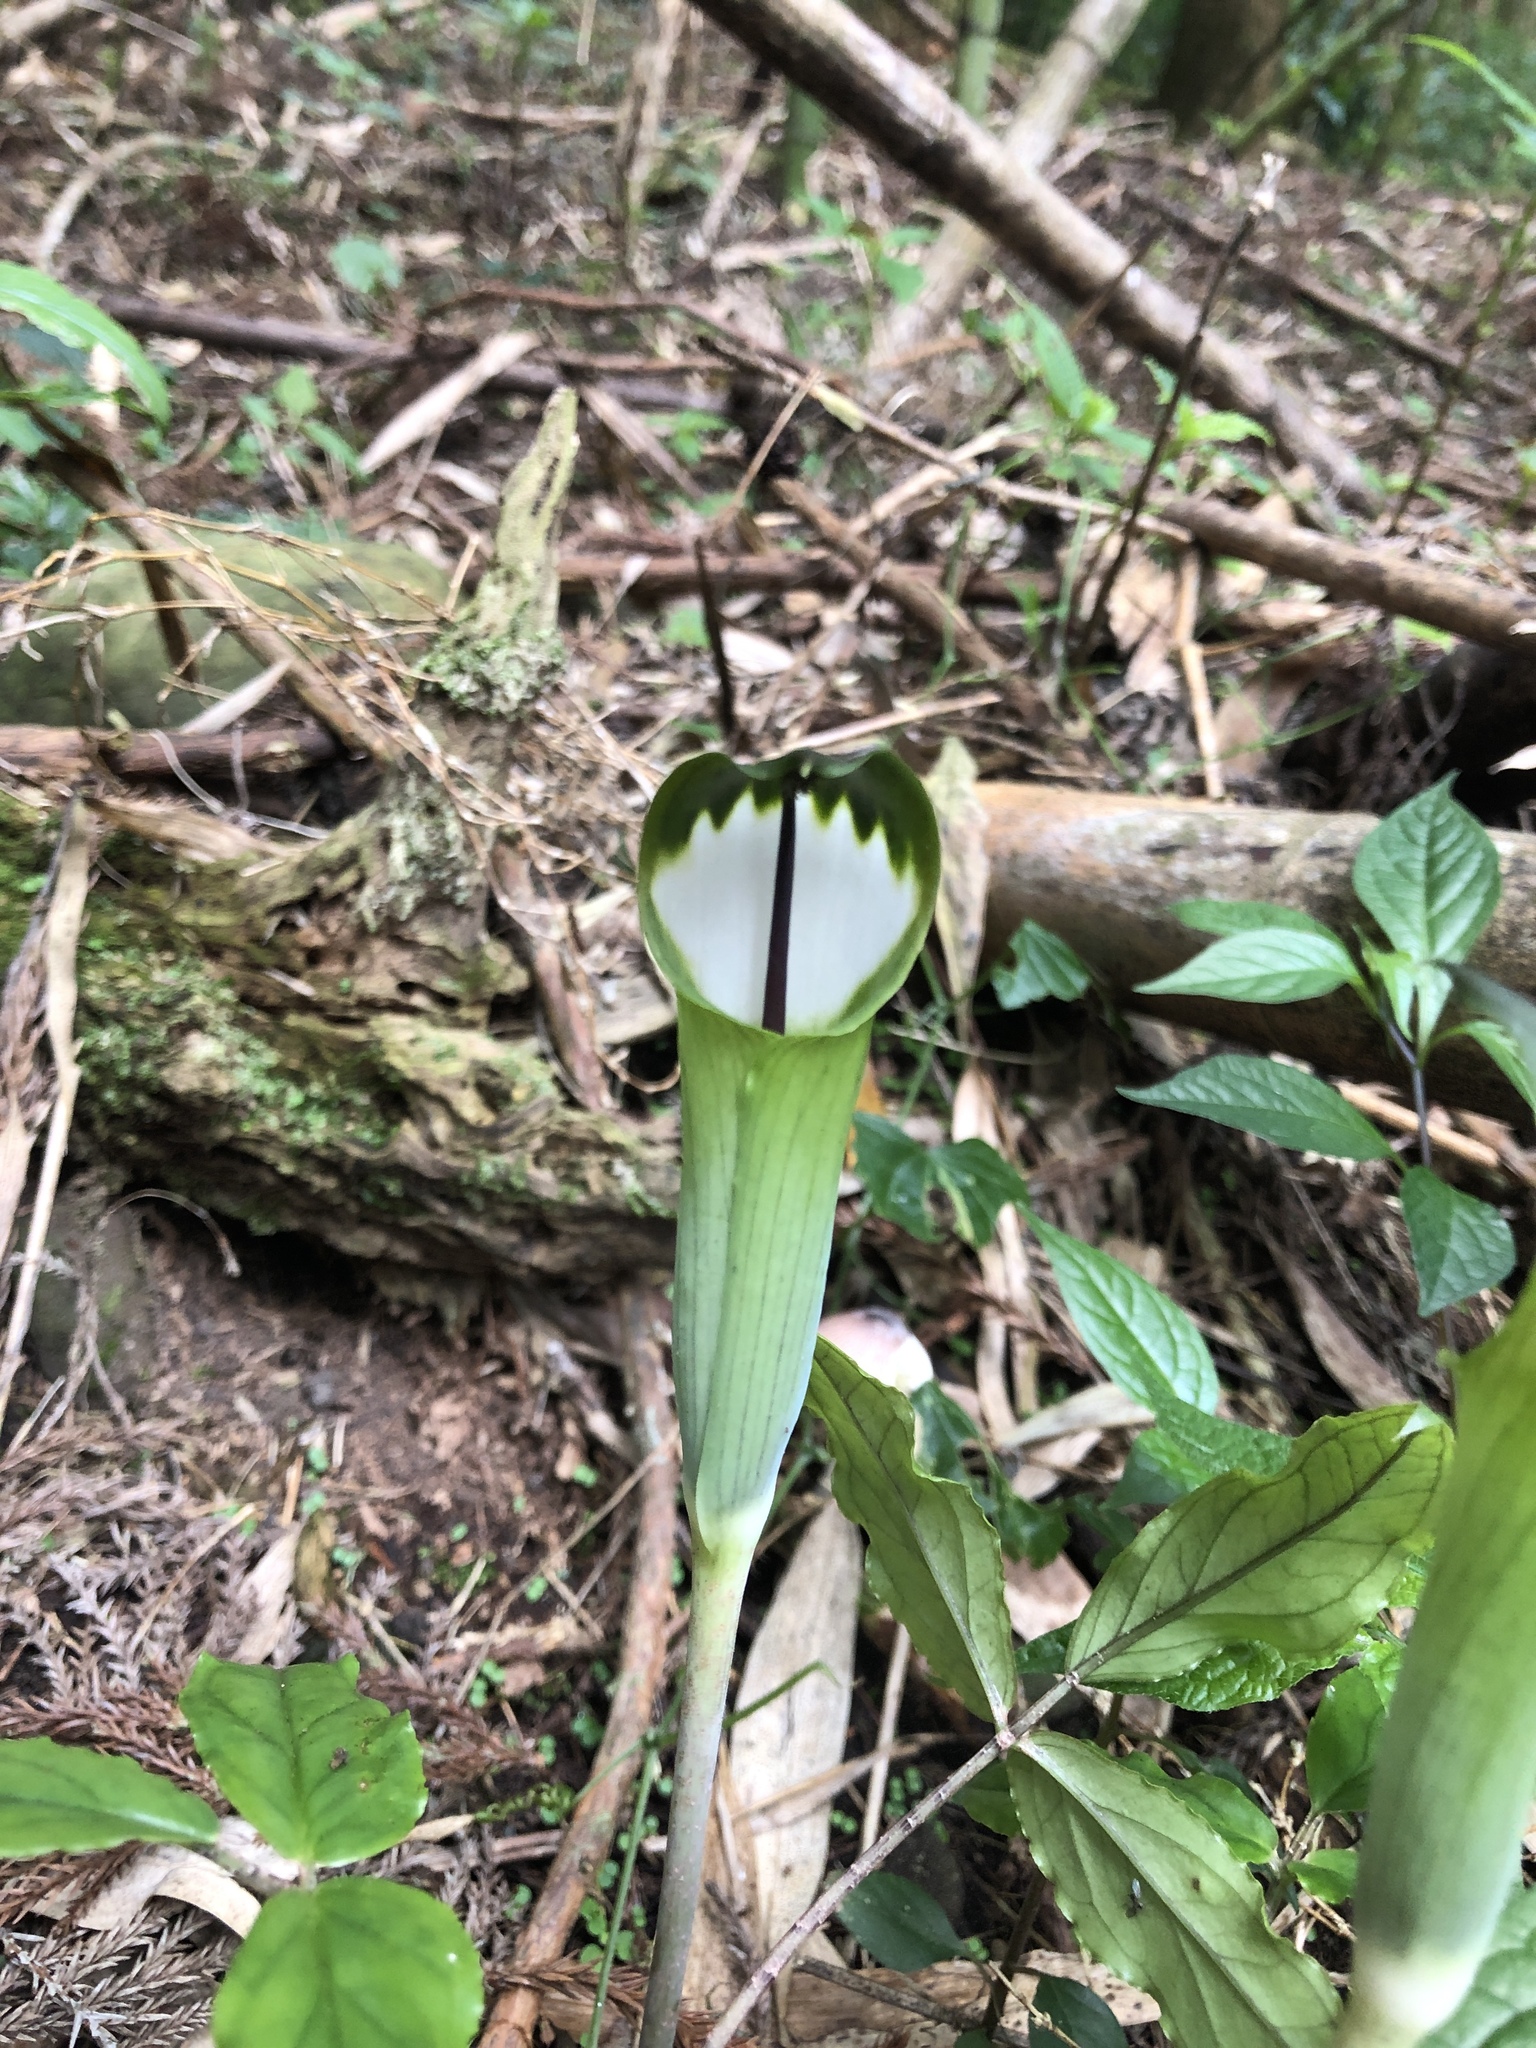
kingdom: Plantae
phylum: Tracheophyta
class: Liliopsida
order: Alismatales
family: Araceae
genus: Arisaema
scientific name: Arisaema penicillatum
